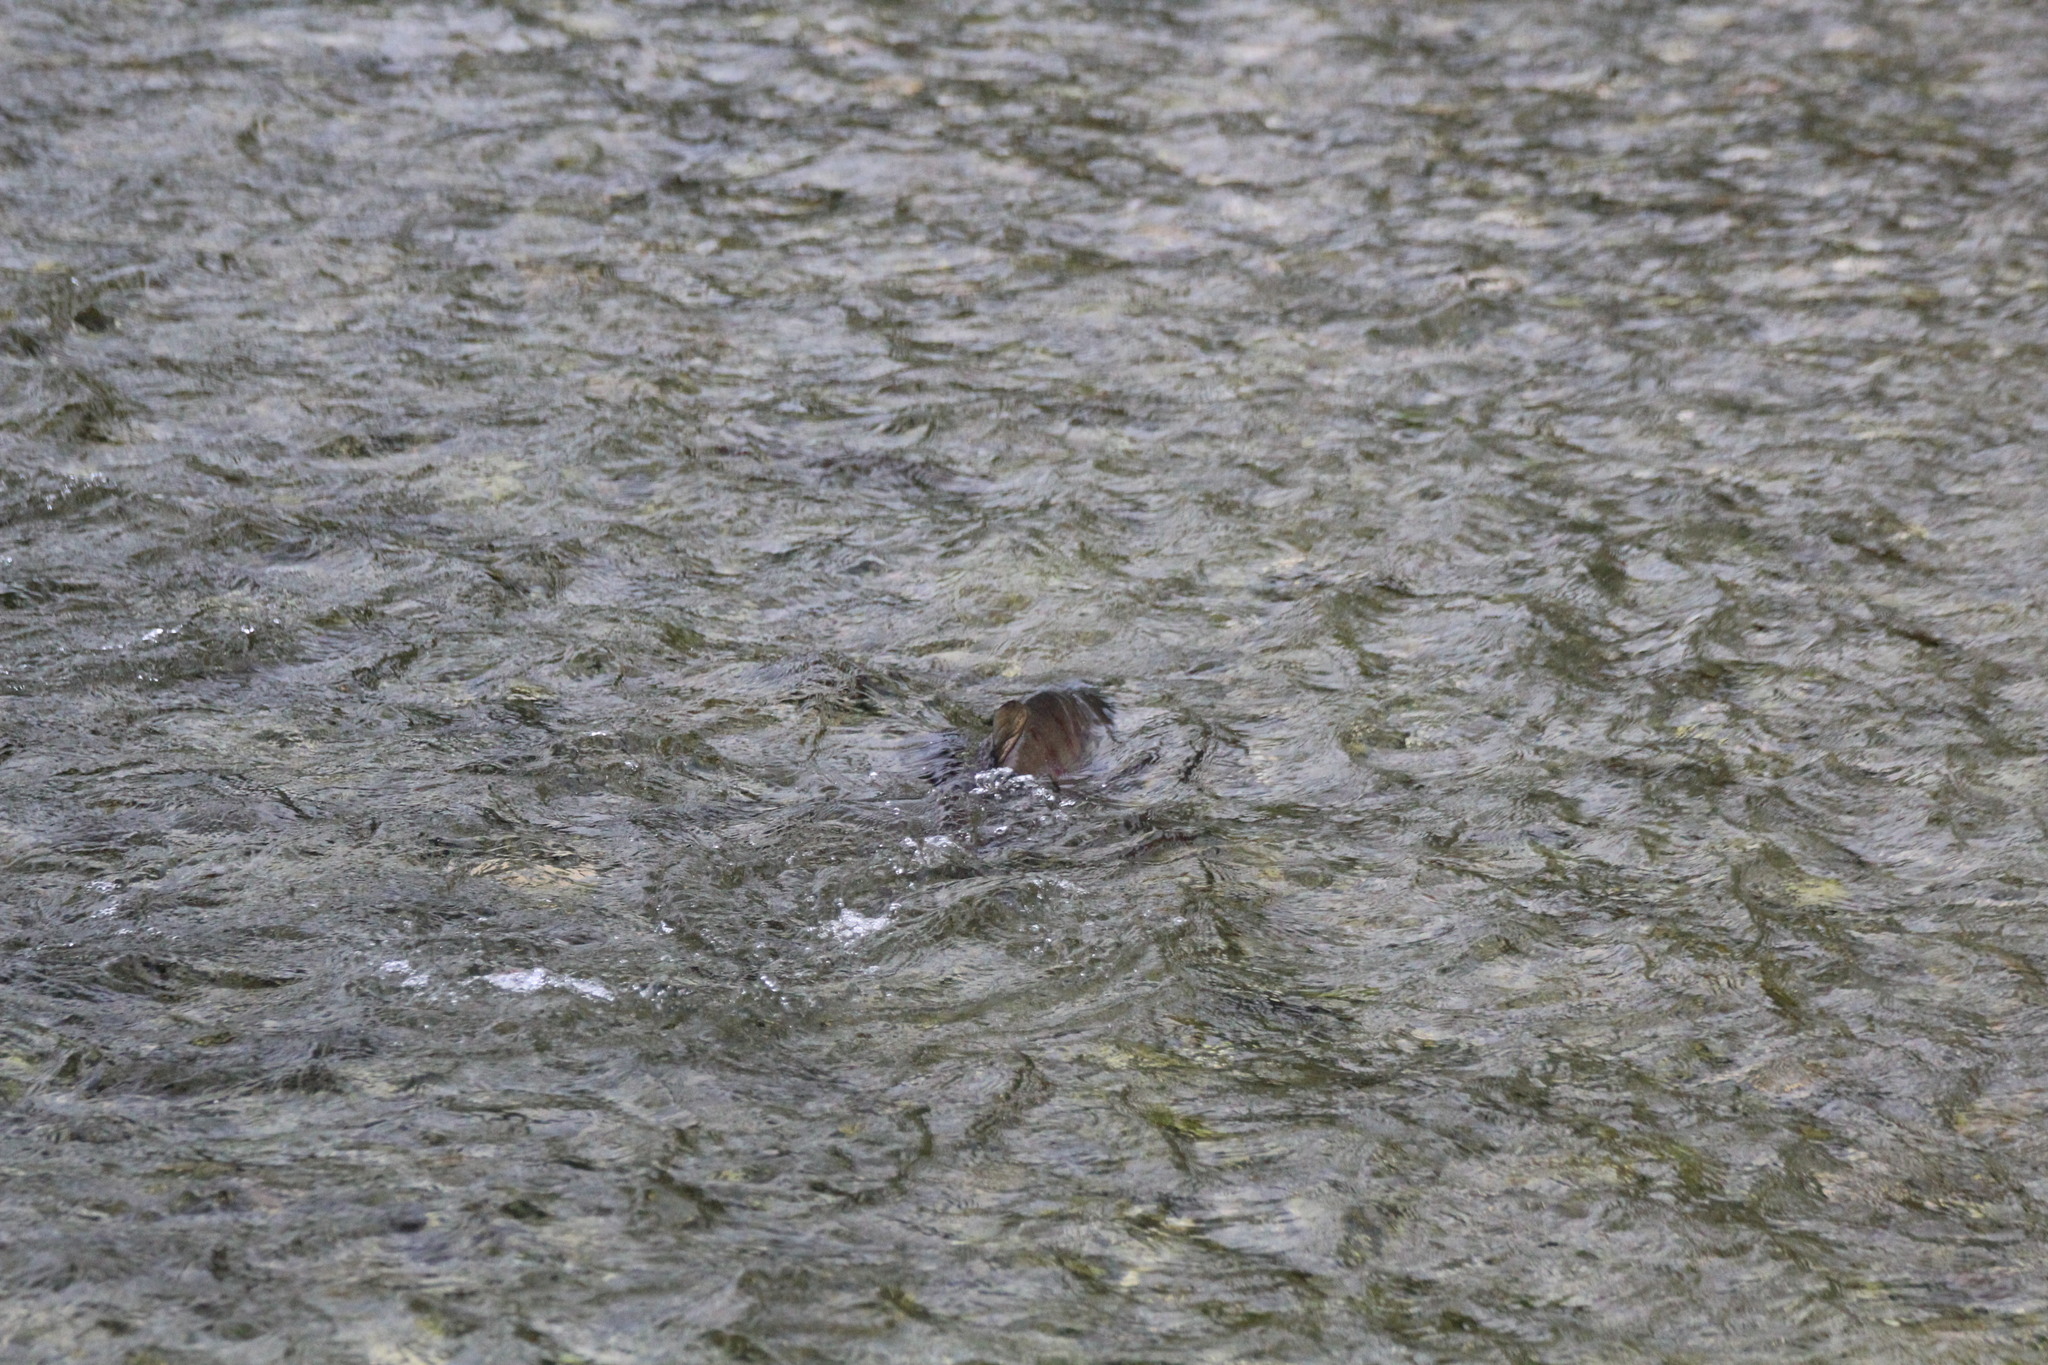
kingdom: Animalia
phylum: Chordata
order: Salmoniformes
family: Salmonidae
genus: Oncorhynchus
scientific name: Oncorhynchus keta
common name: Chum salmon
